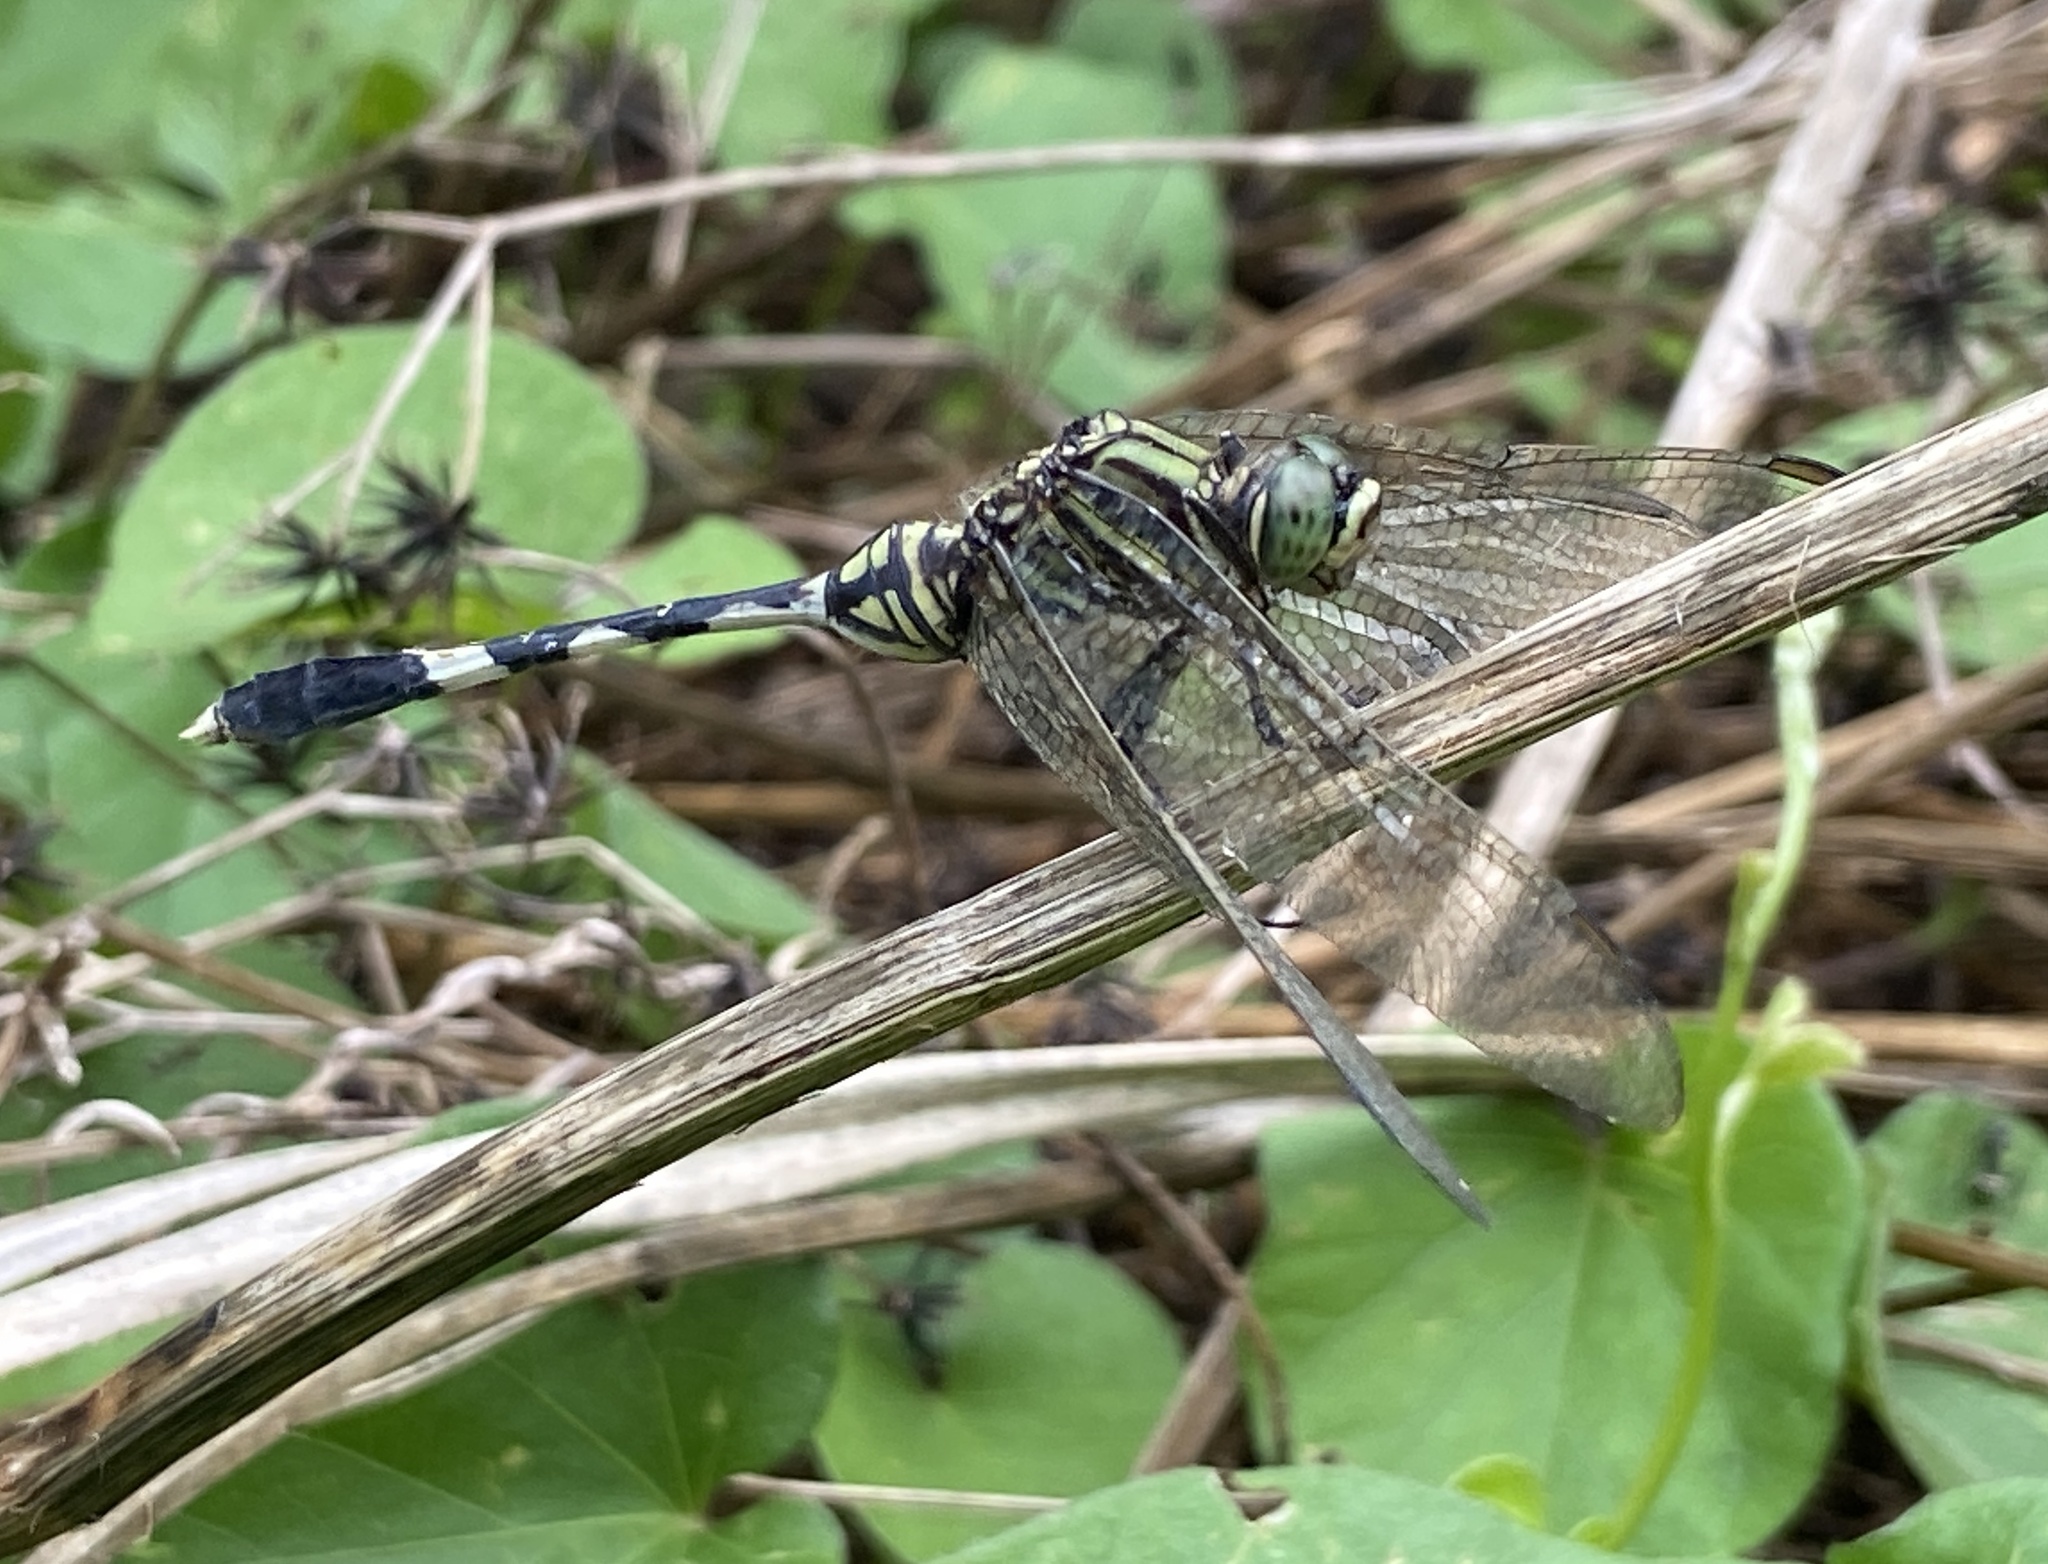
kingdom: Animalia
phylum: Arthropoda
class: Insecta
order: Odonata
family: Libellulidae
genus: Orthetrum
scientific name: Orthetrum sabina
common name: Slender skimmer
